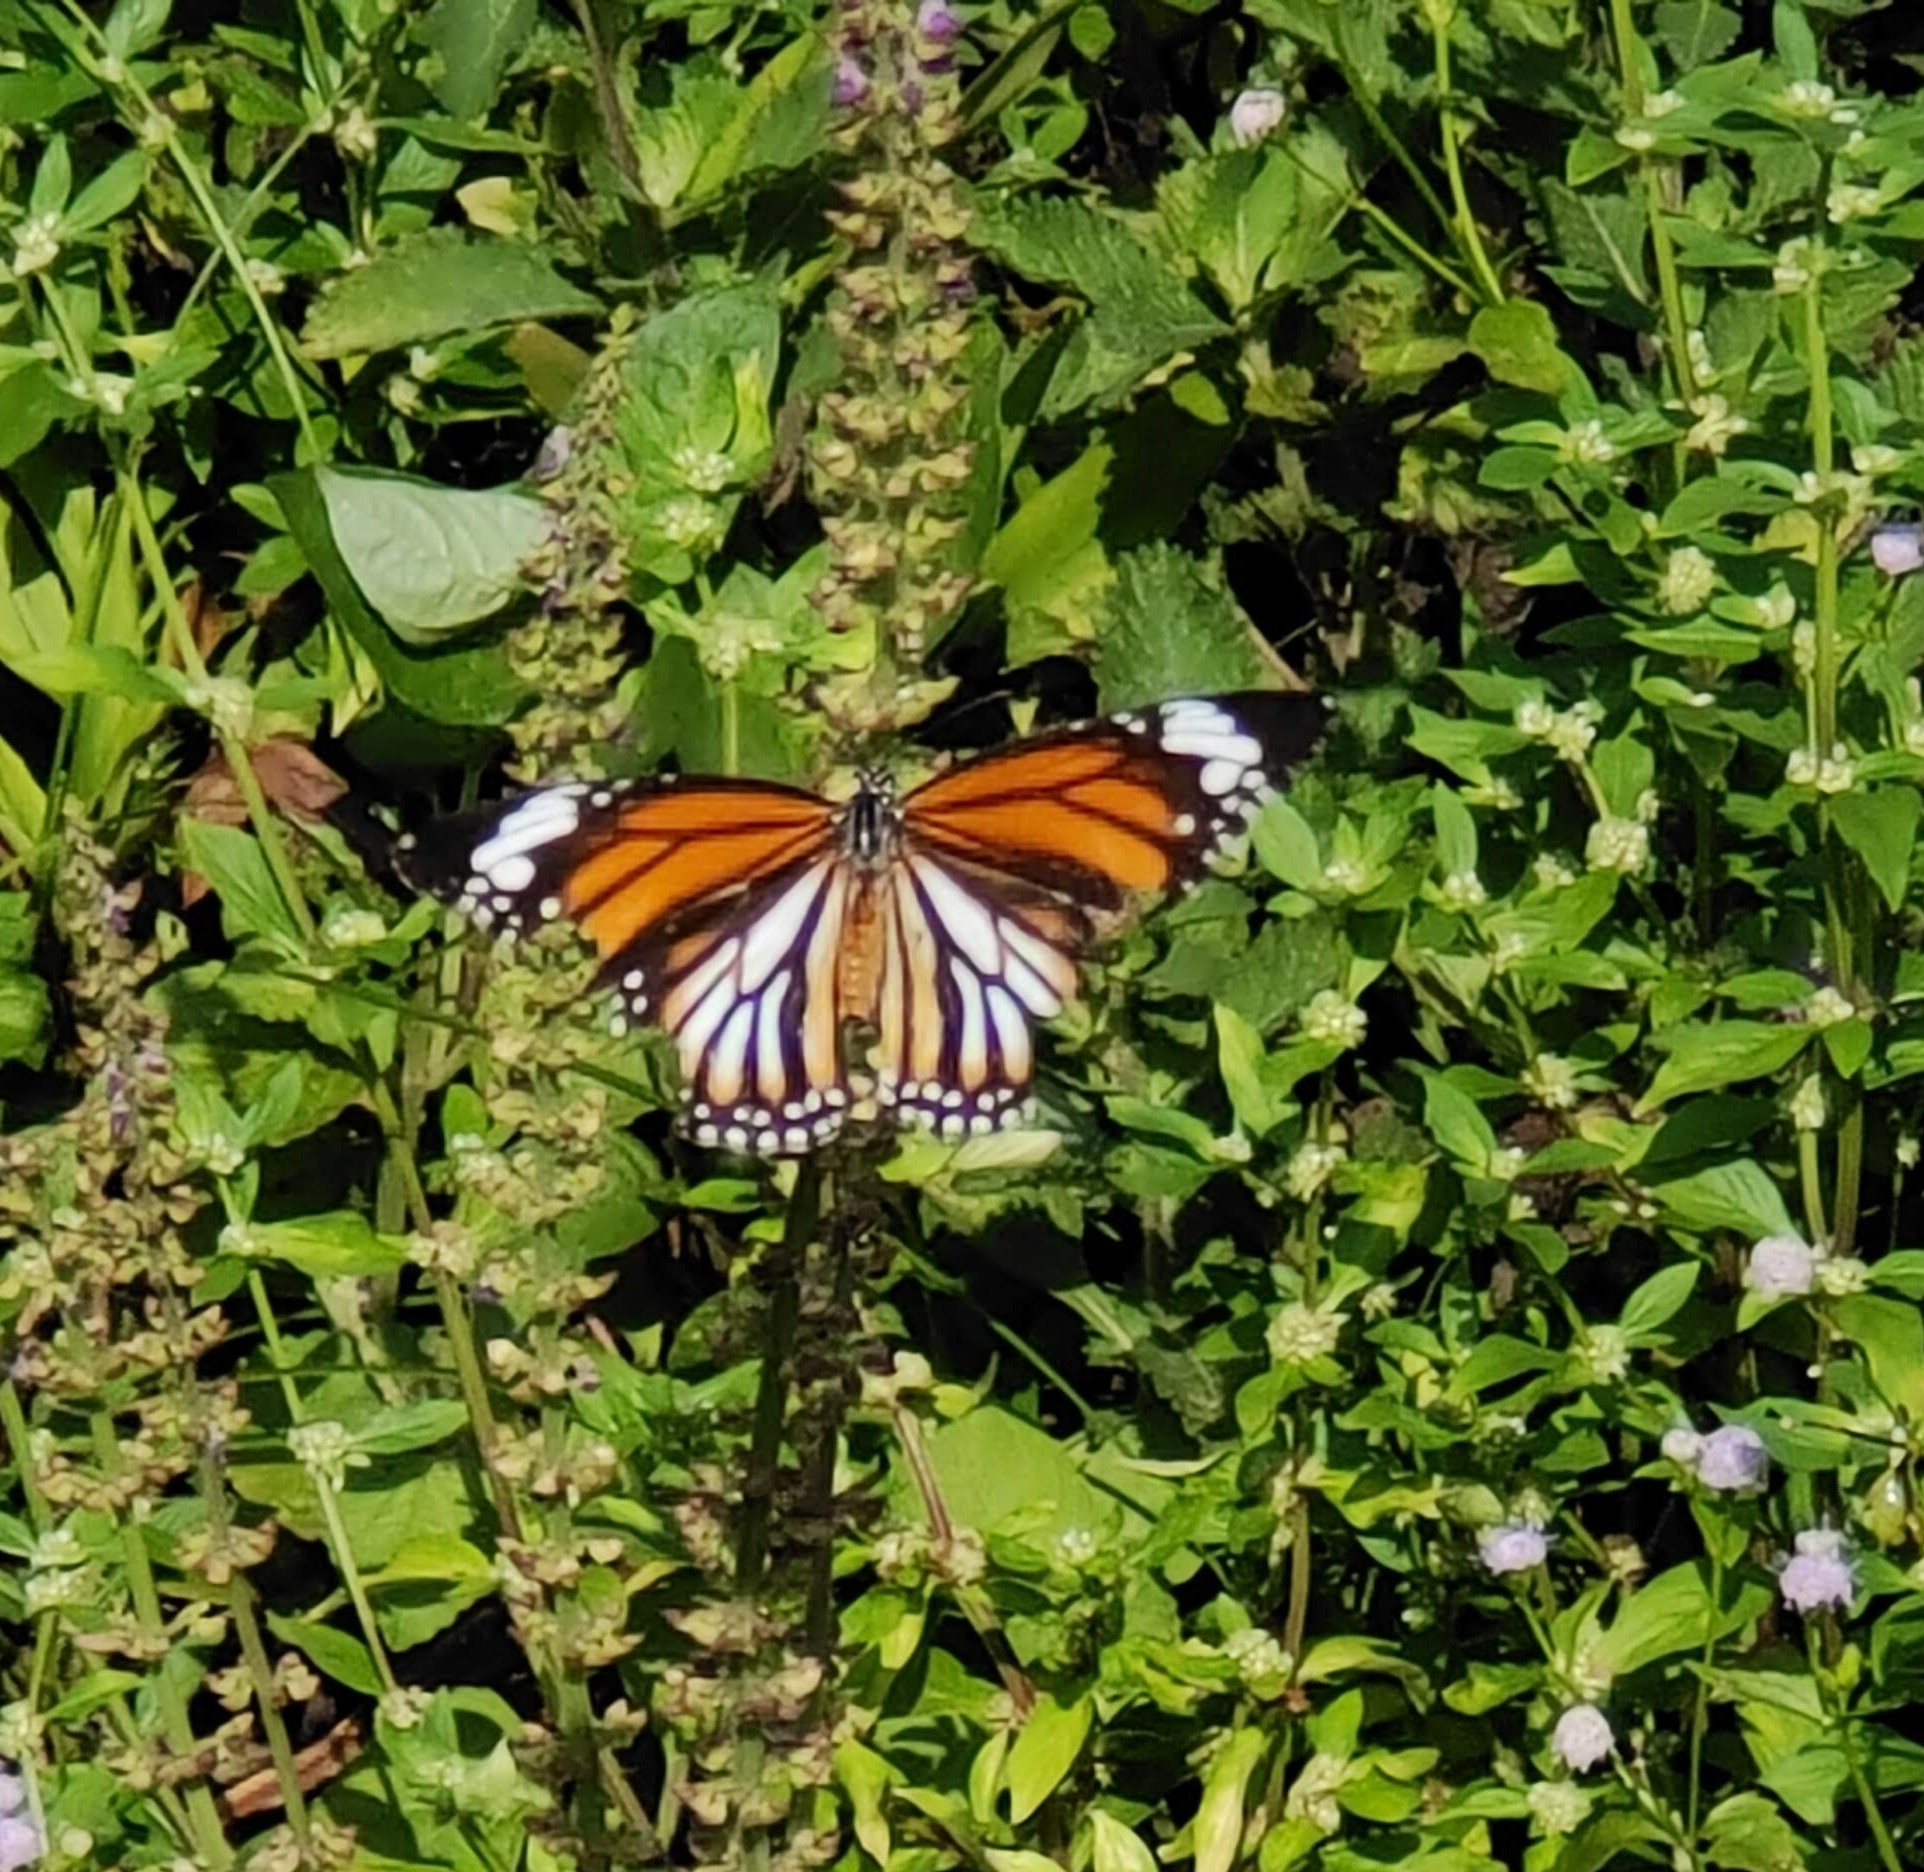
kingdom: Animalia
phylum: Arthropoda
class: Insecta
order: Lepidoptera
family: Nymphalidae
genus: Danaus
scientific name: Danaus genutia
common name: Common tiger butterfly
